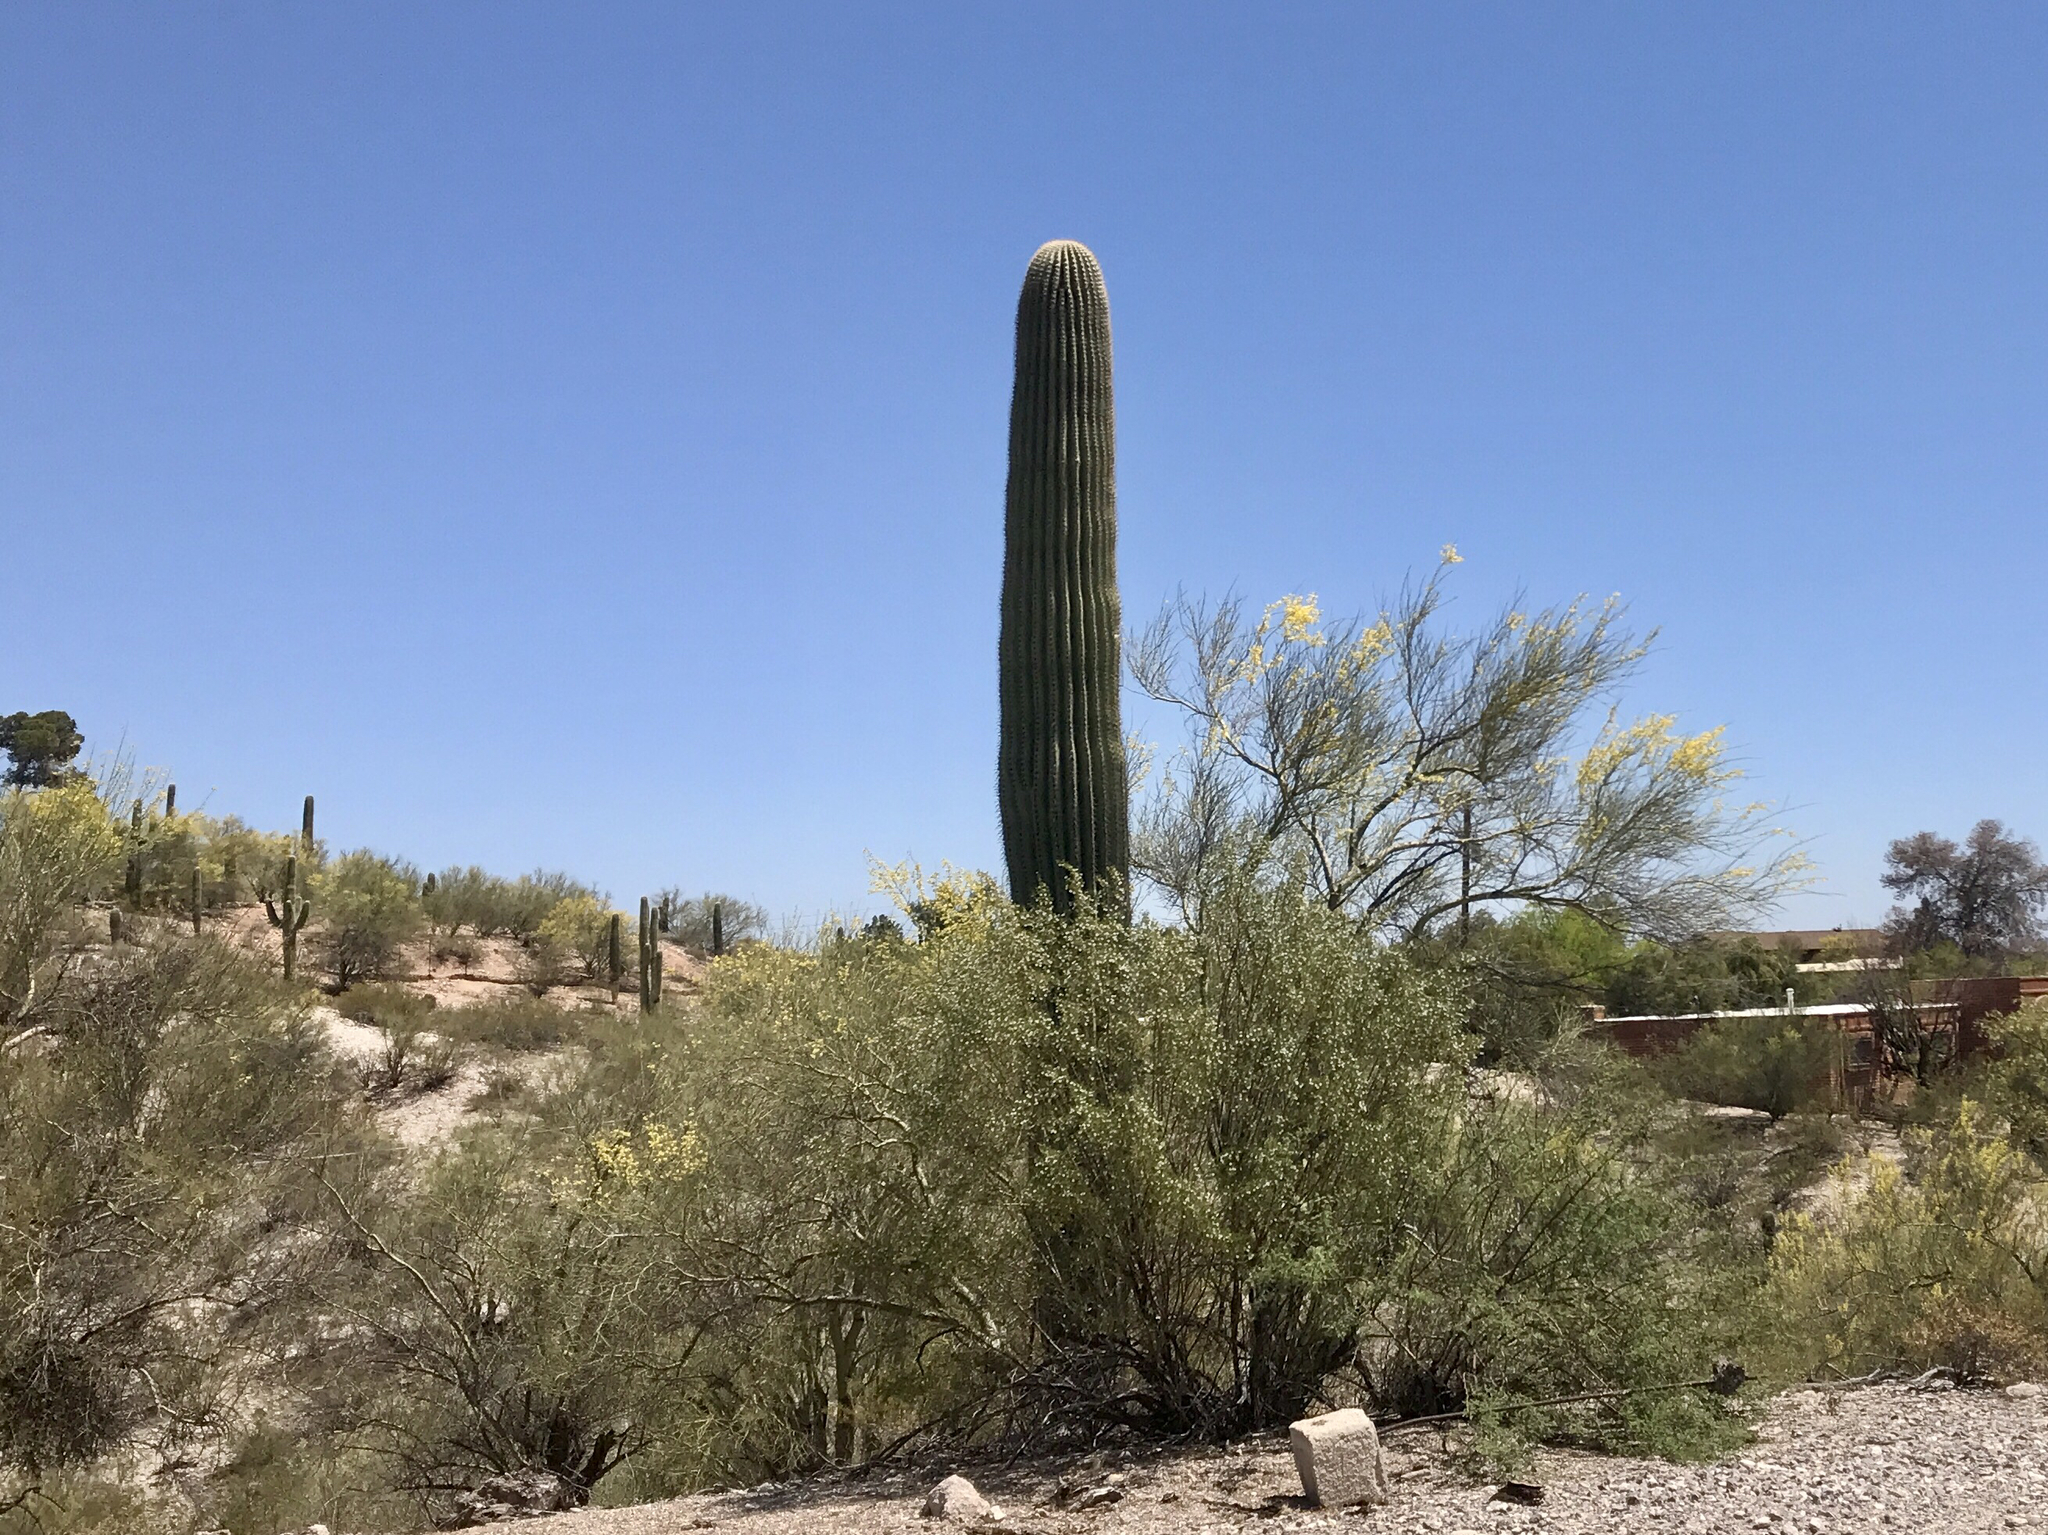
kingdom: Plantae
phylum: Tracheophyta
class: Magnoliopsida
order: Caryophyllales
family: Cactaceae
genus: Carnegiea
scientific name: Carnegiea gigantea
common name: Saguaro
